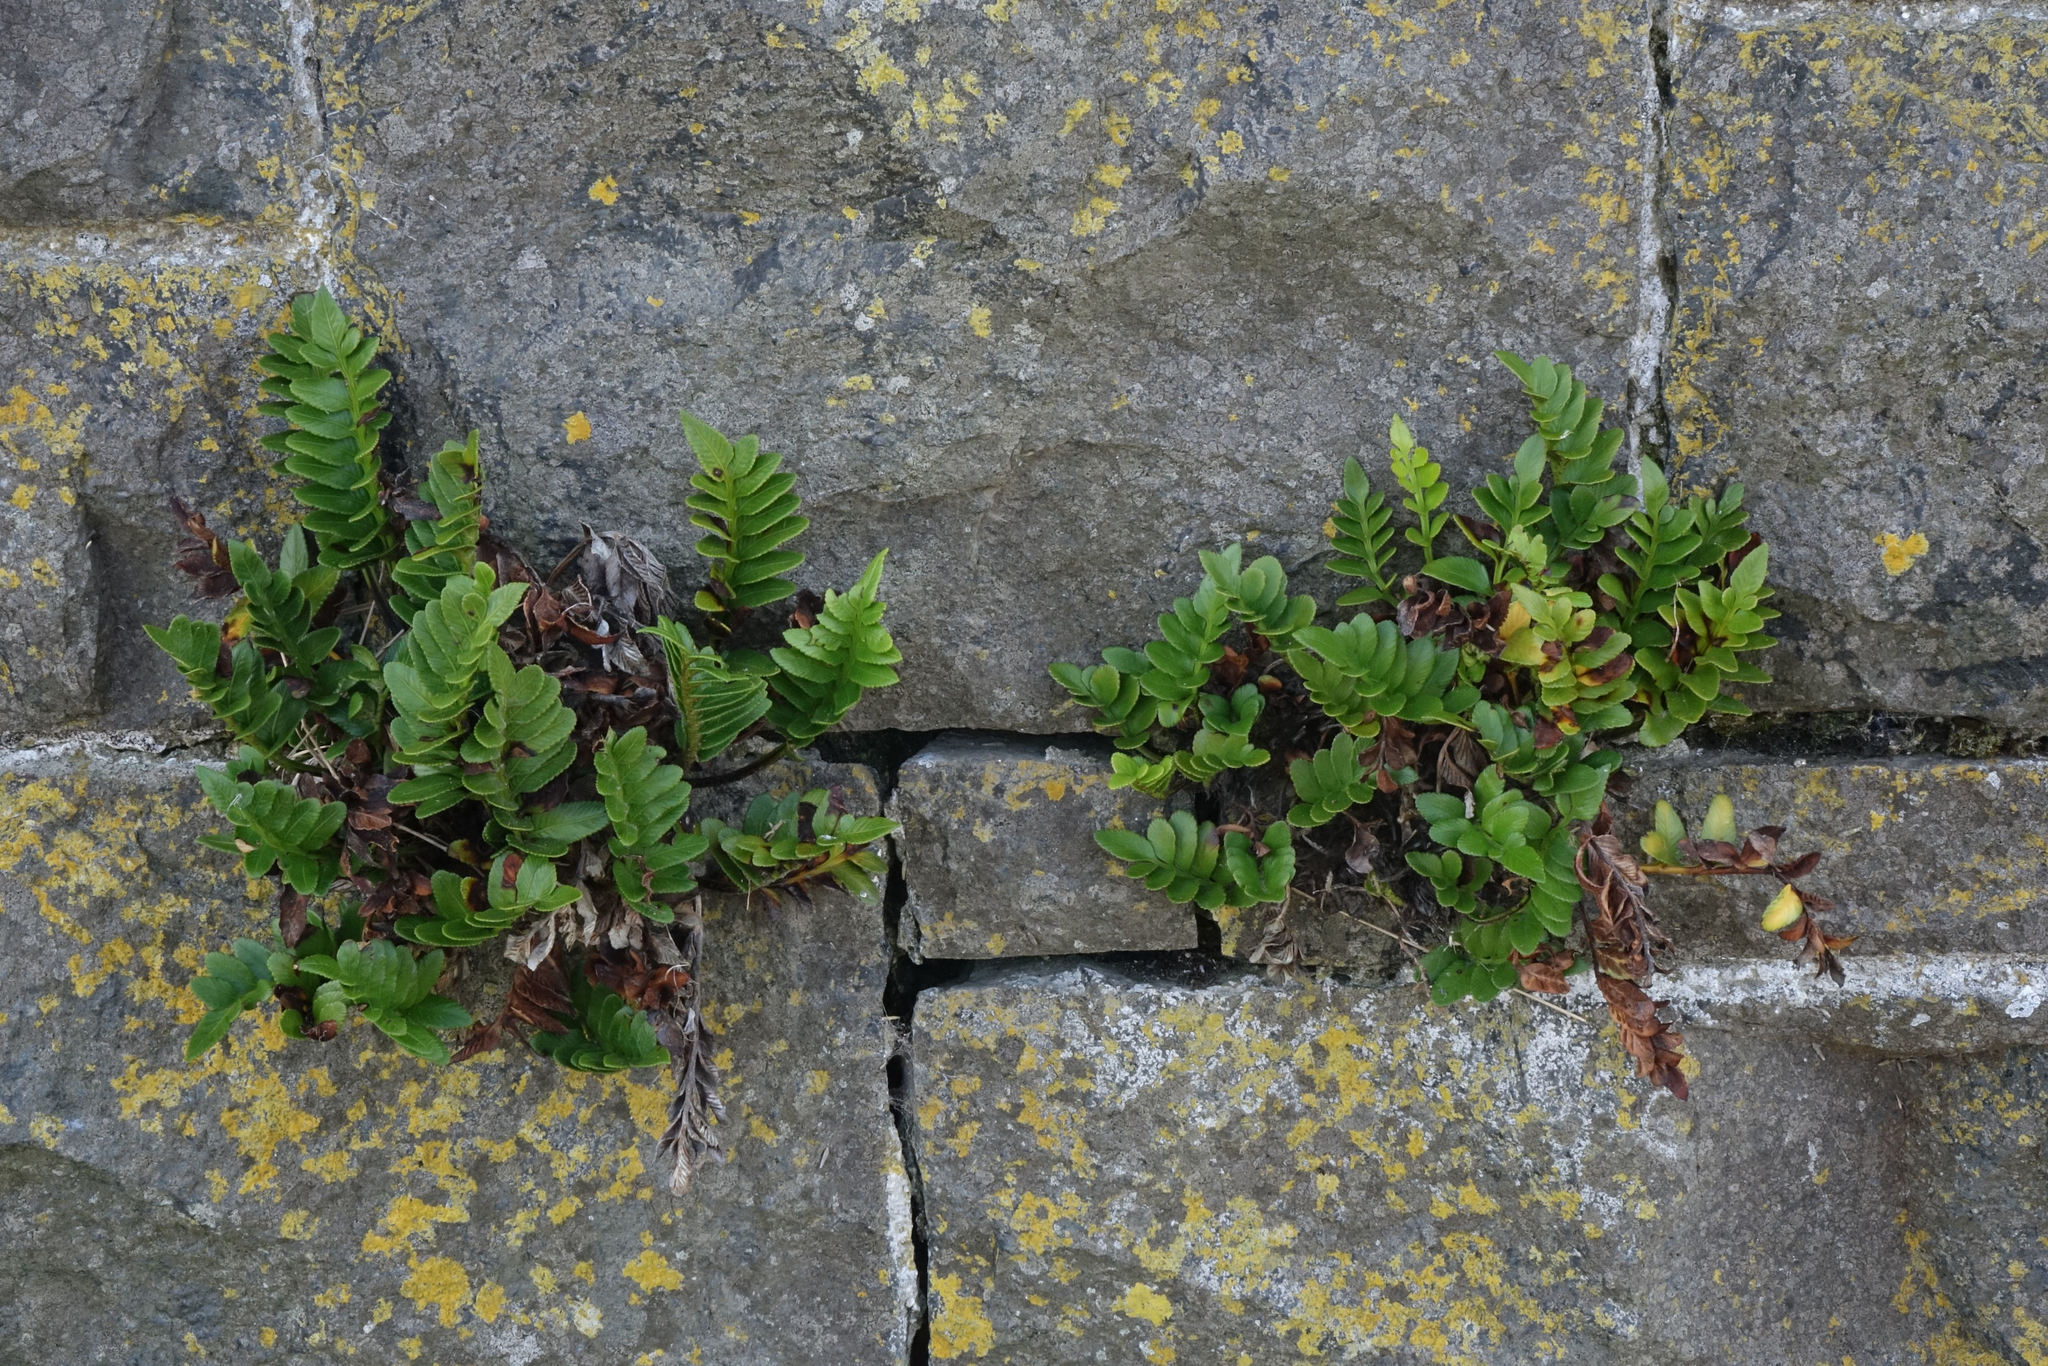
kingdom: Plantae
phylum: Tracheophyta
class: Polypodiopsida
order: Polypodiales
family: Aspleniaceae
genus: Asplenium
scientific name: Asplenium obtusatum
